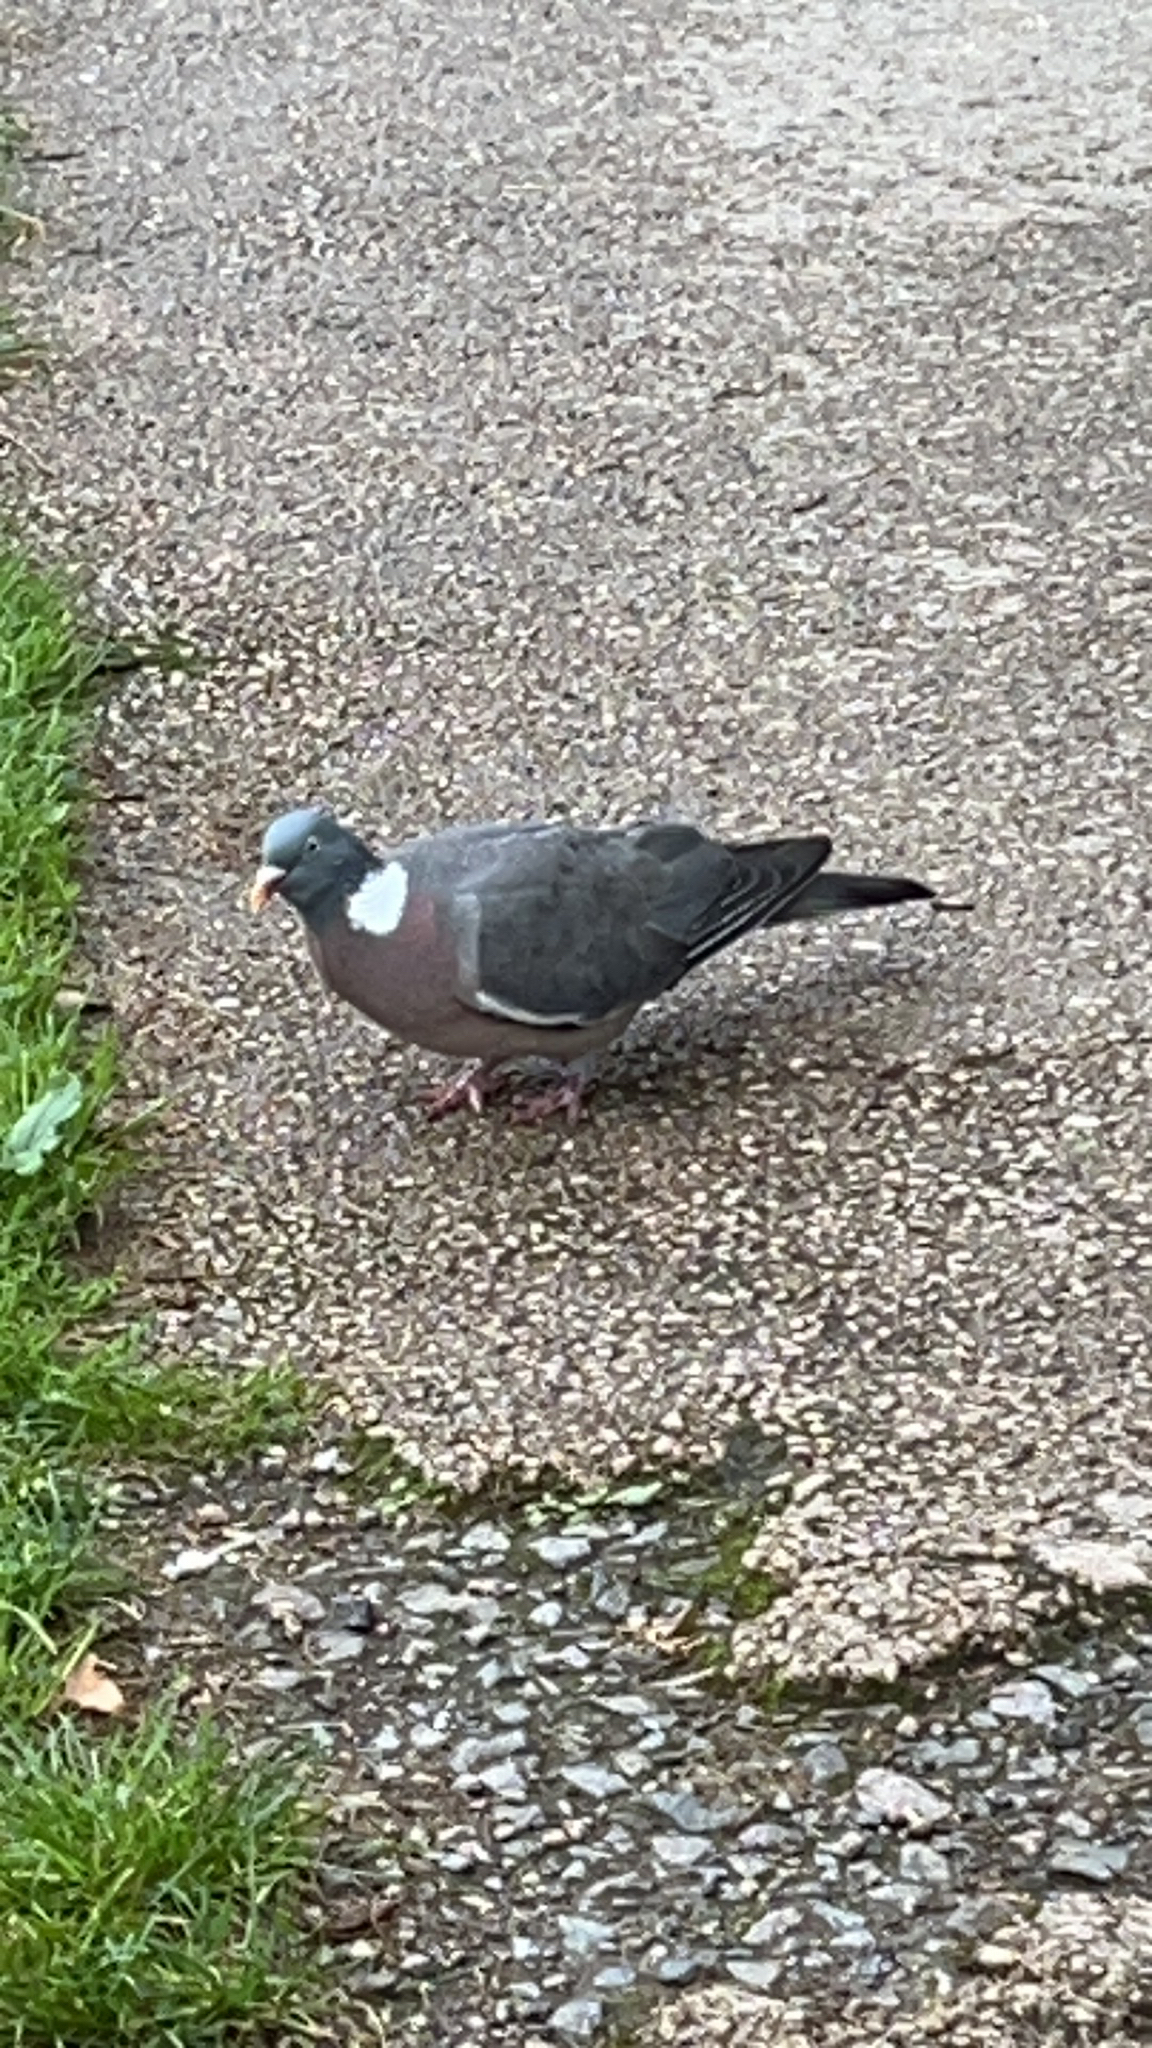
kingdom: Animalia
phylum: Chordata
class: Aves
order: Columbiformes
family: Columbidae
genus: Columba
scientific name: Columba palumbus
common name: Common wood pigeon
